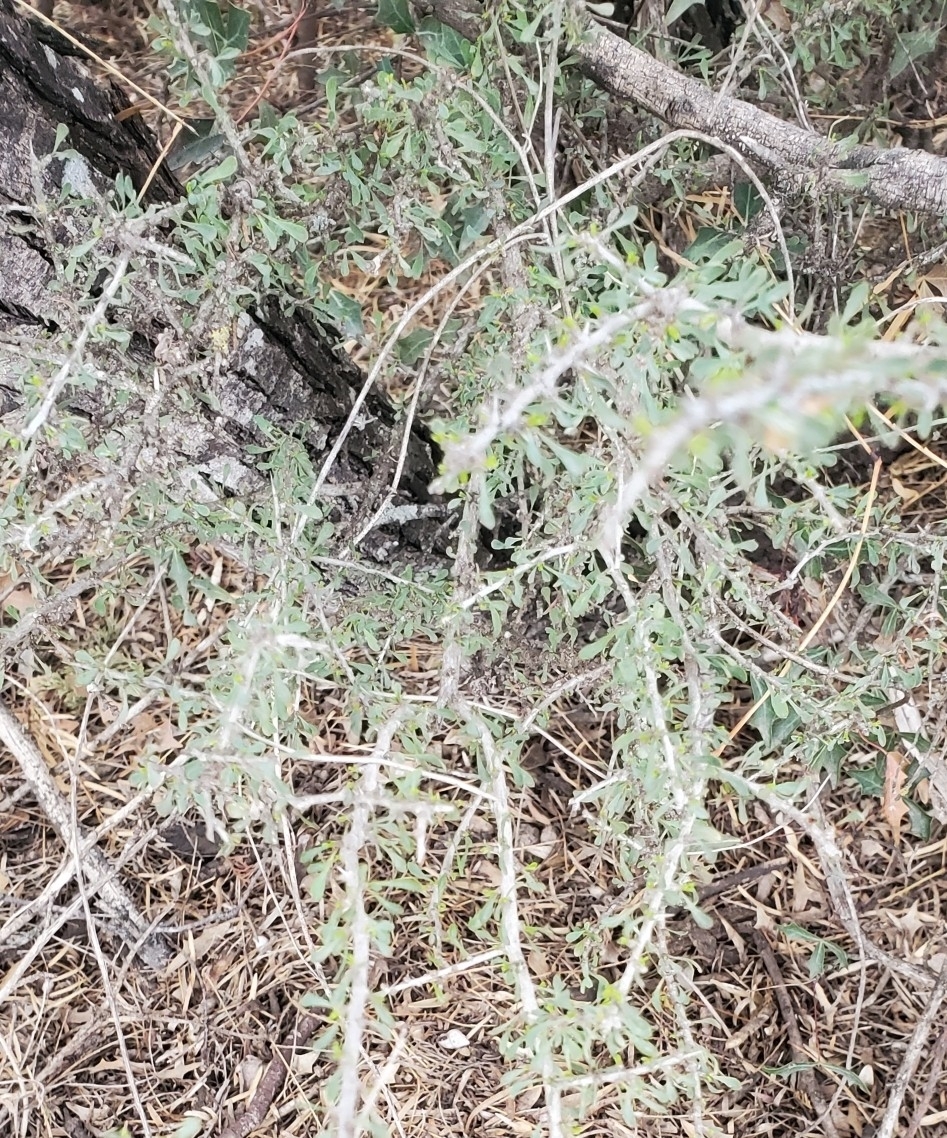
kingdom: Plantae
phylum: Tracheophyta
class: Magnoliopsida
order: Rosales
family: Rhamnaceae
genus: Condalia
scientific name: Condalia spathulata
